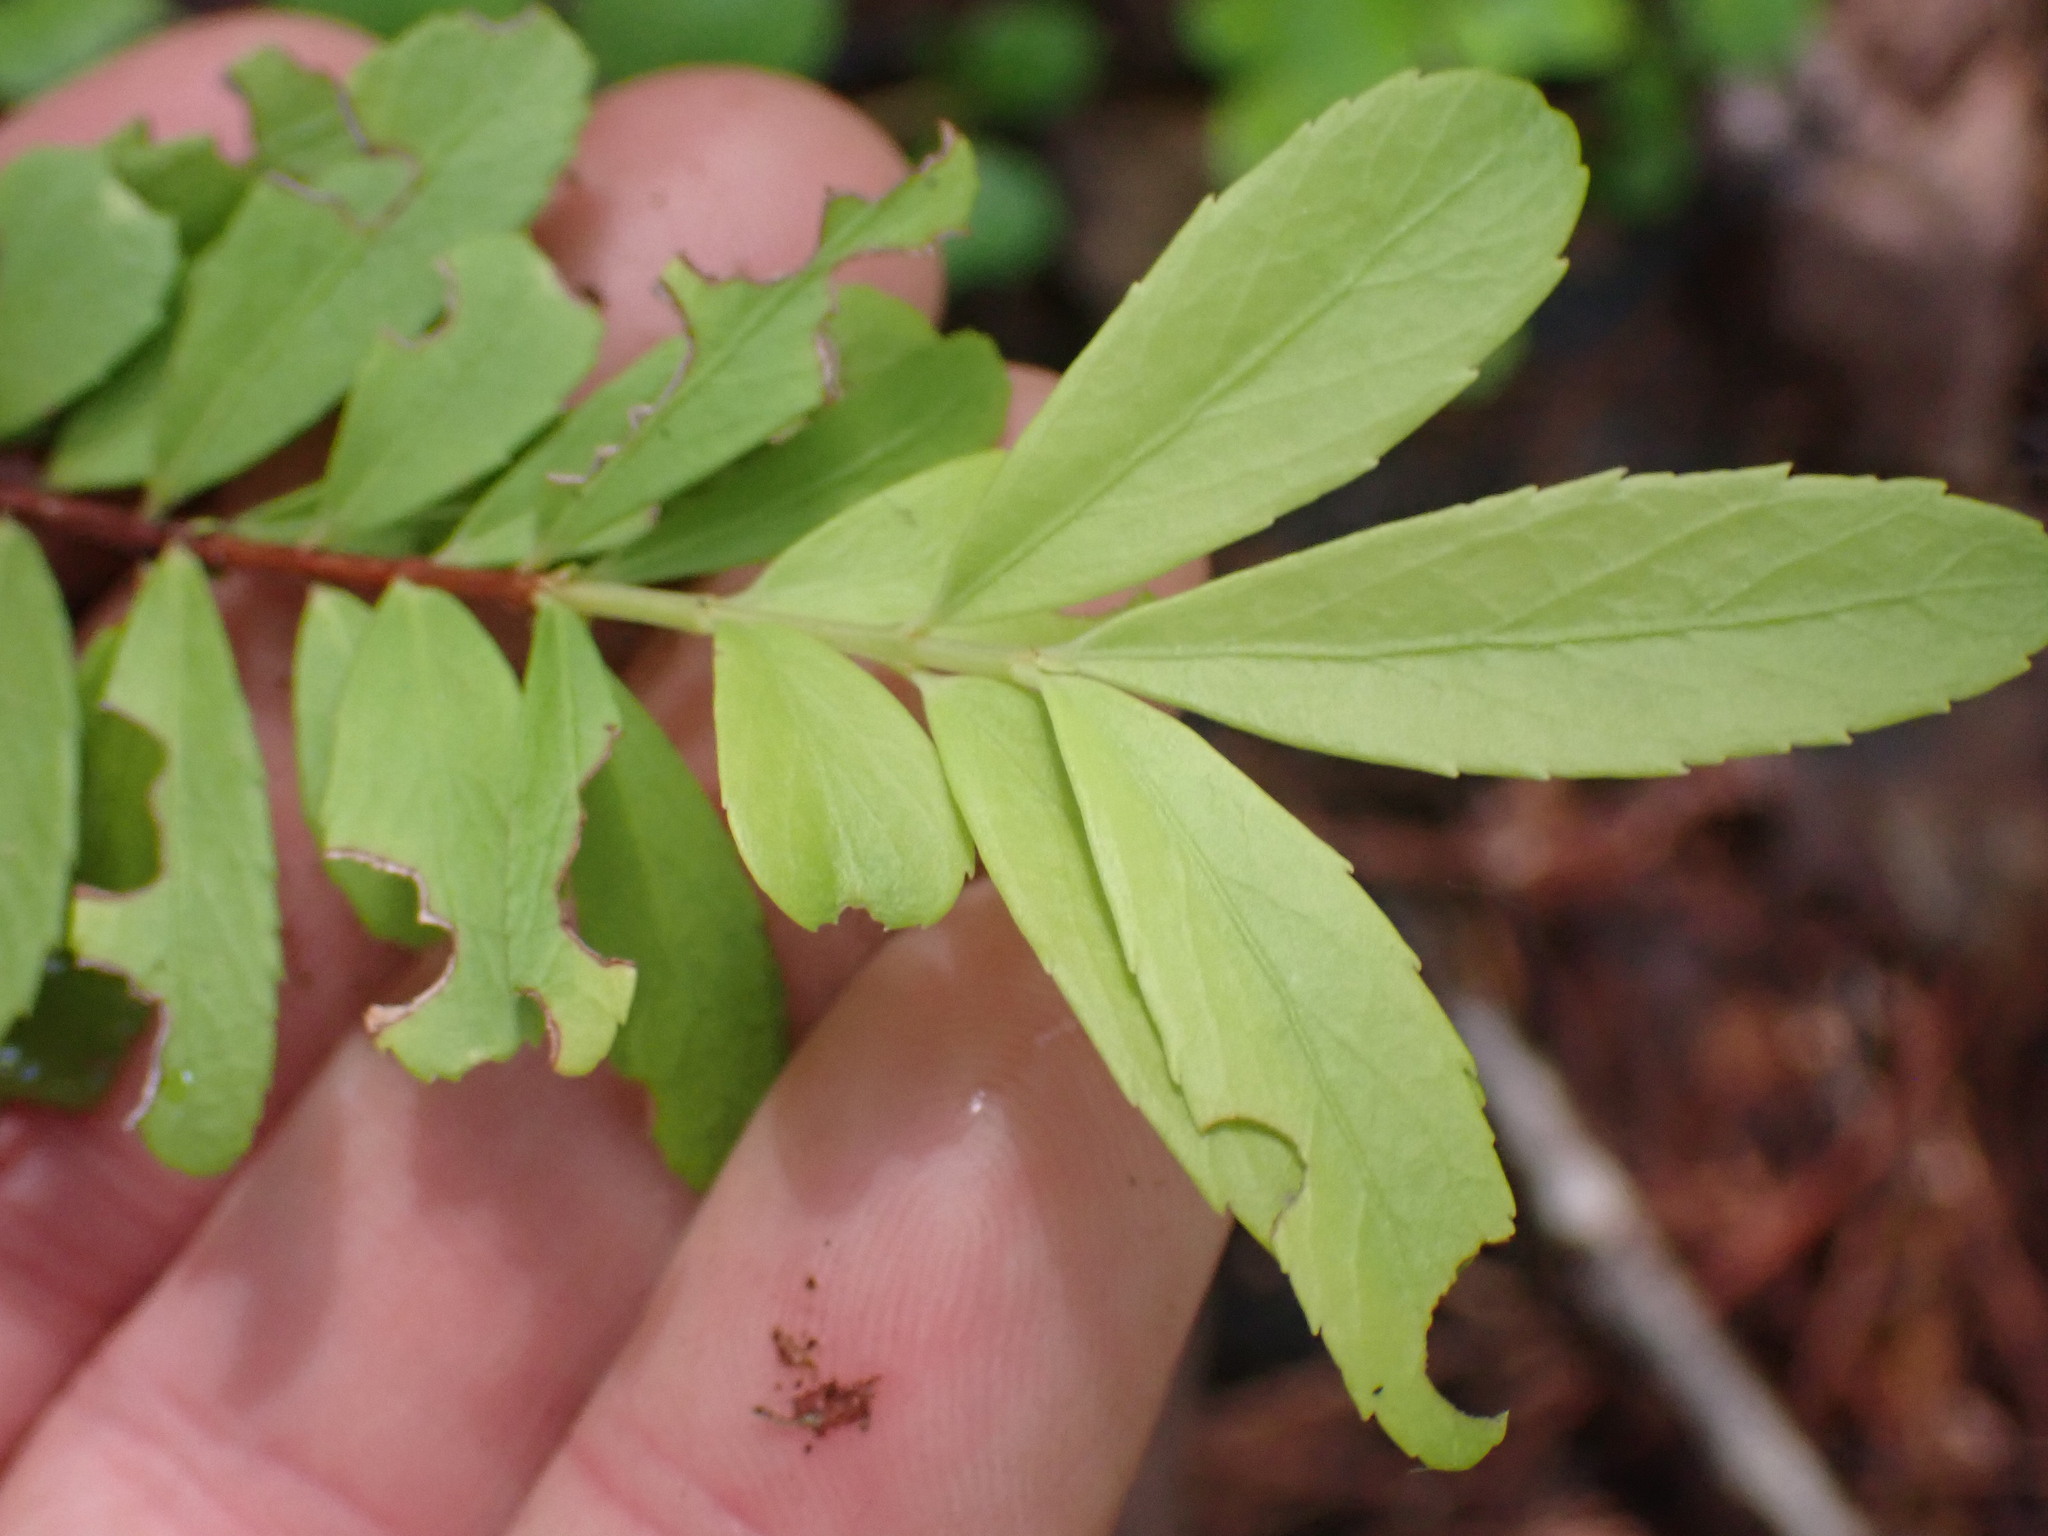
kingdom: Plantae
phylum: Tracheophyta
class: Magnoliopsida
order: Celastrales
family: Celastraceae
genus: Paxistima
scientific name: Paxistima myrsinites
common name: Mountain-lover
